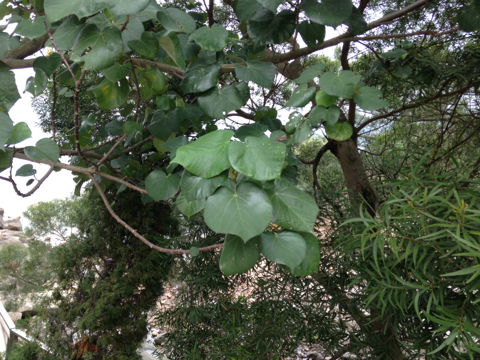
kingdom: Plantae
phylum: Tracheophyta
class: Magnoliopsida
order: Malvales
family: Malvaceae
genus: Talipariti
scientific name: Talipariti tiliaceum
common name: Sea hibiscus
